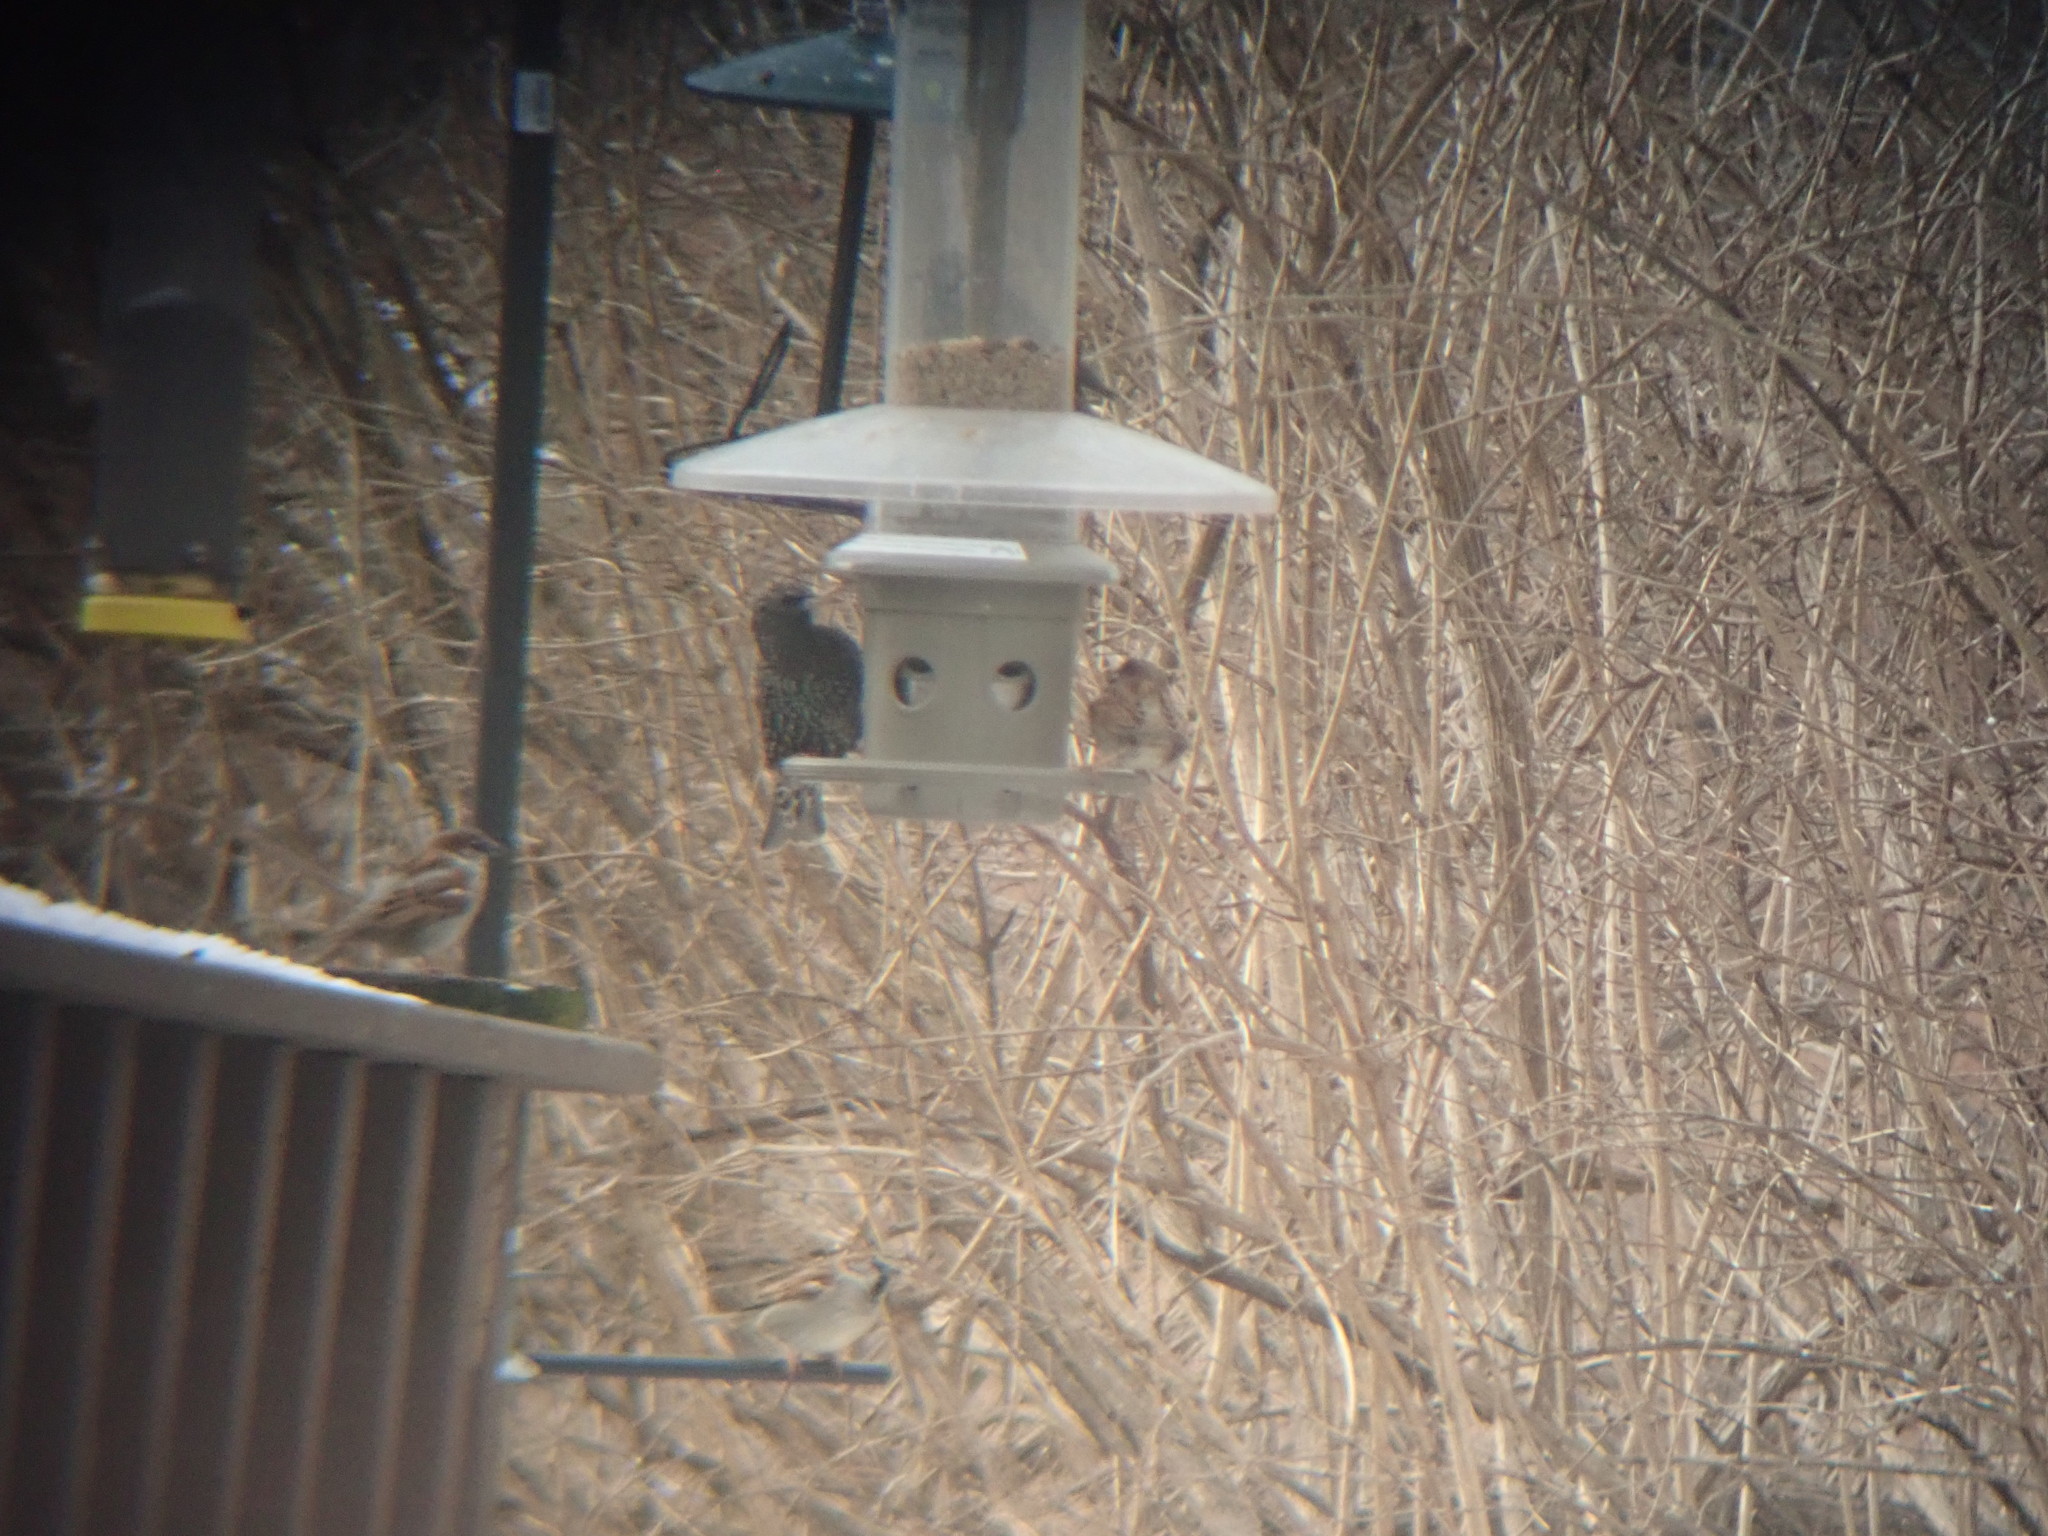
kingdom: Animalia
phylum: Chordata
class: Aves
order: Passeriformes
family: Sturnidae
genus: Sturnus
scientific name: Sturnus vulgaris
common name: Common starling
